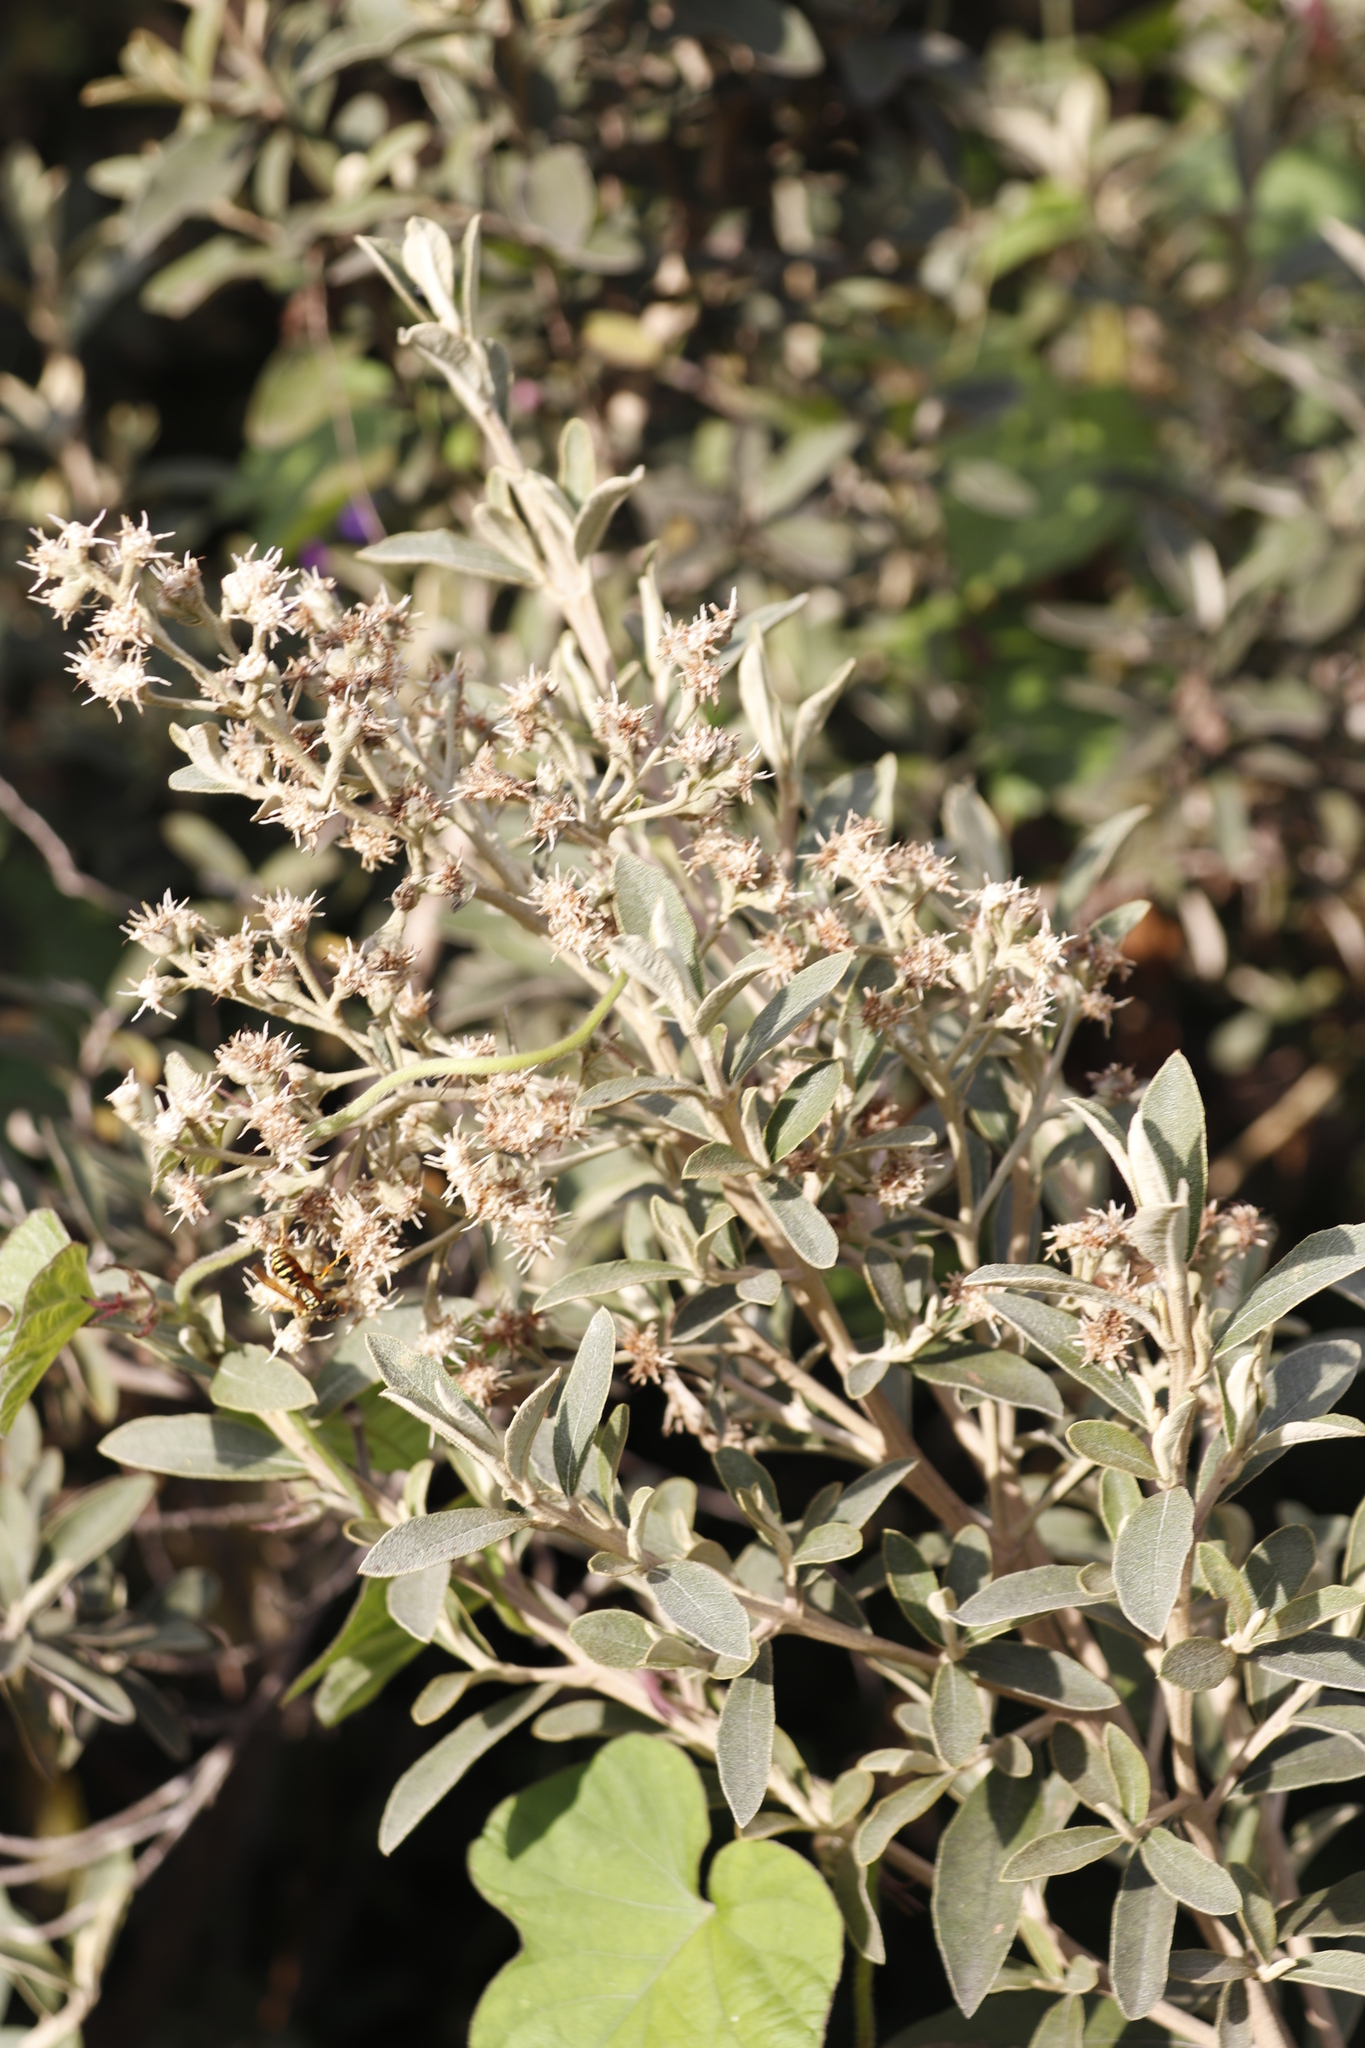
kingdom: Plantae
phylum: Tracheophyta
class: Magnoliopsida
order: Asterales
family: Asteraceae
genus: Tarchonanthus
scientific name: Tarchonanthus littoralis
